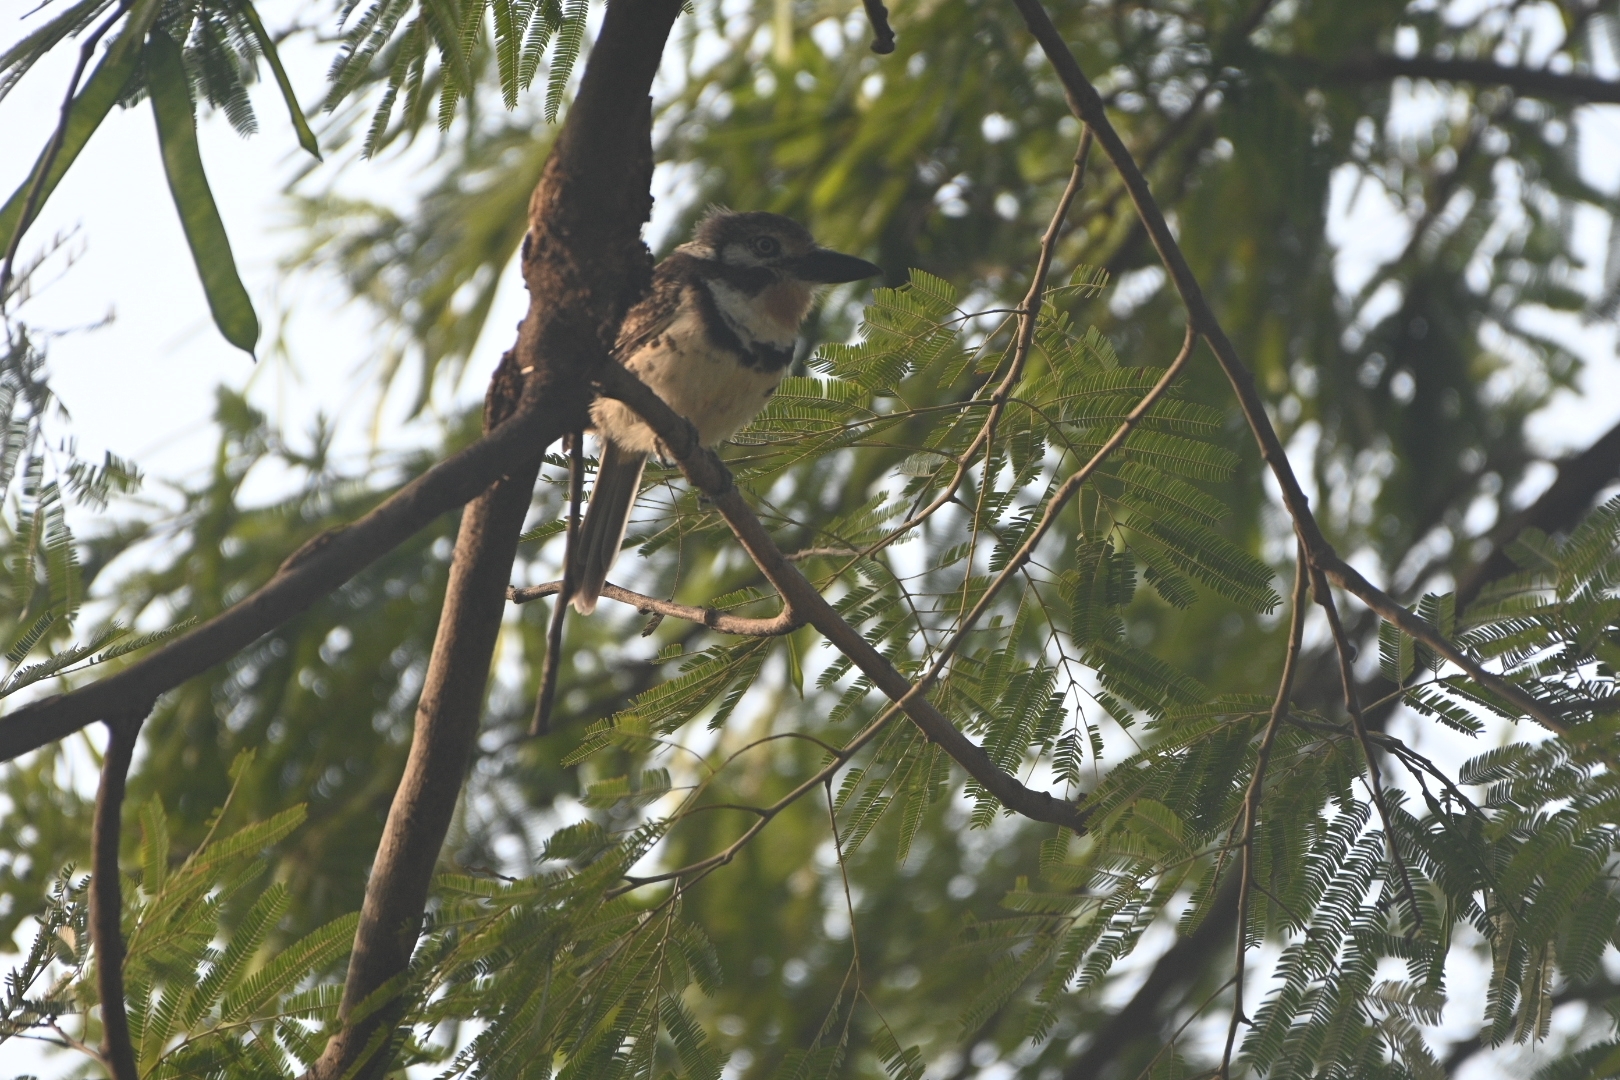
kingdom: Animalia
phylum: Chordata
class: Aves
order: Piciformes
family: Bucconidae
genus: Hypnelus
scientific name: Hypnelus ruficollis
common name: Russet-throated puffbird
